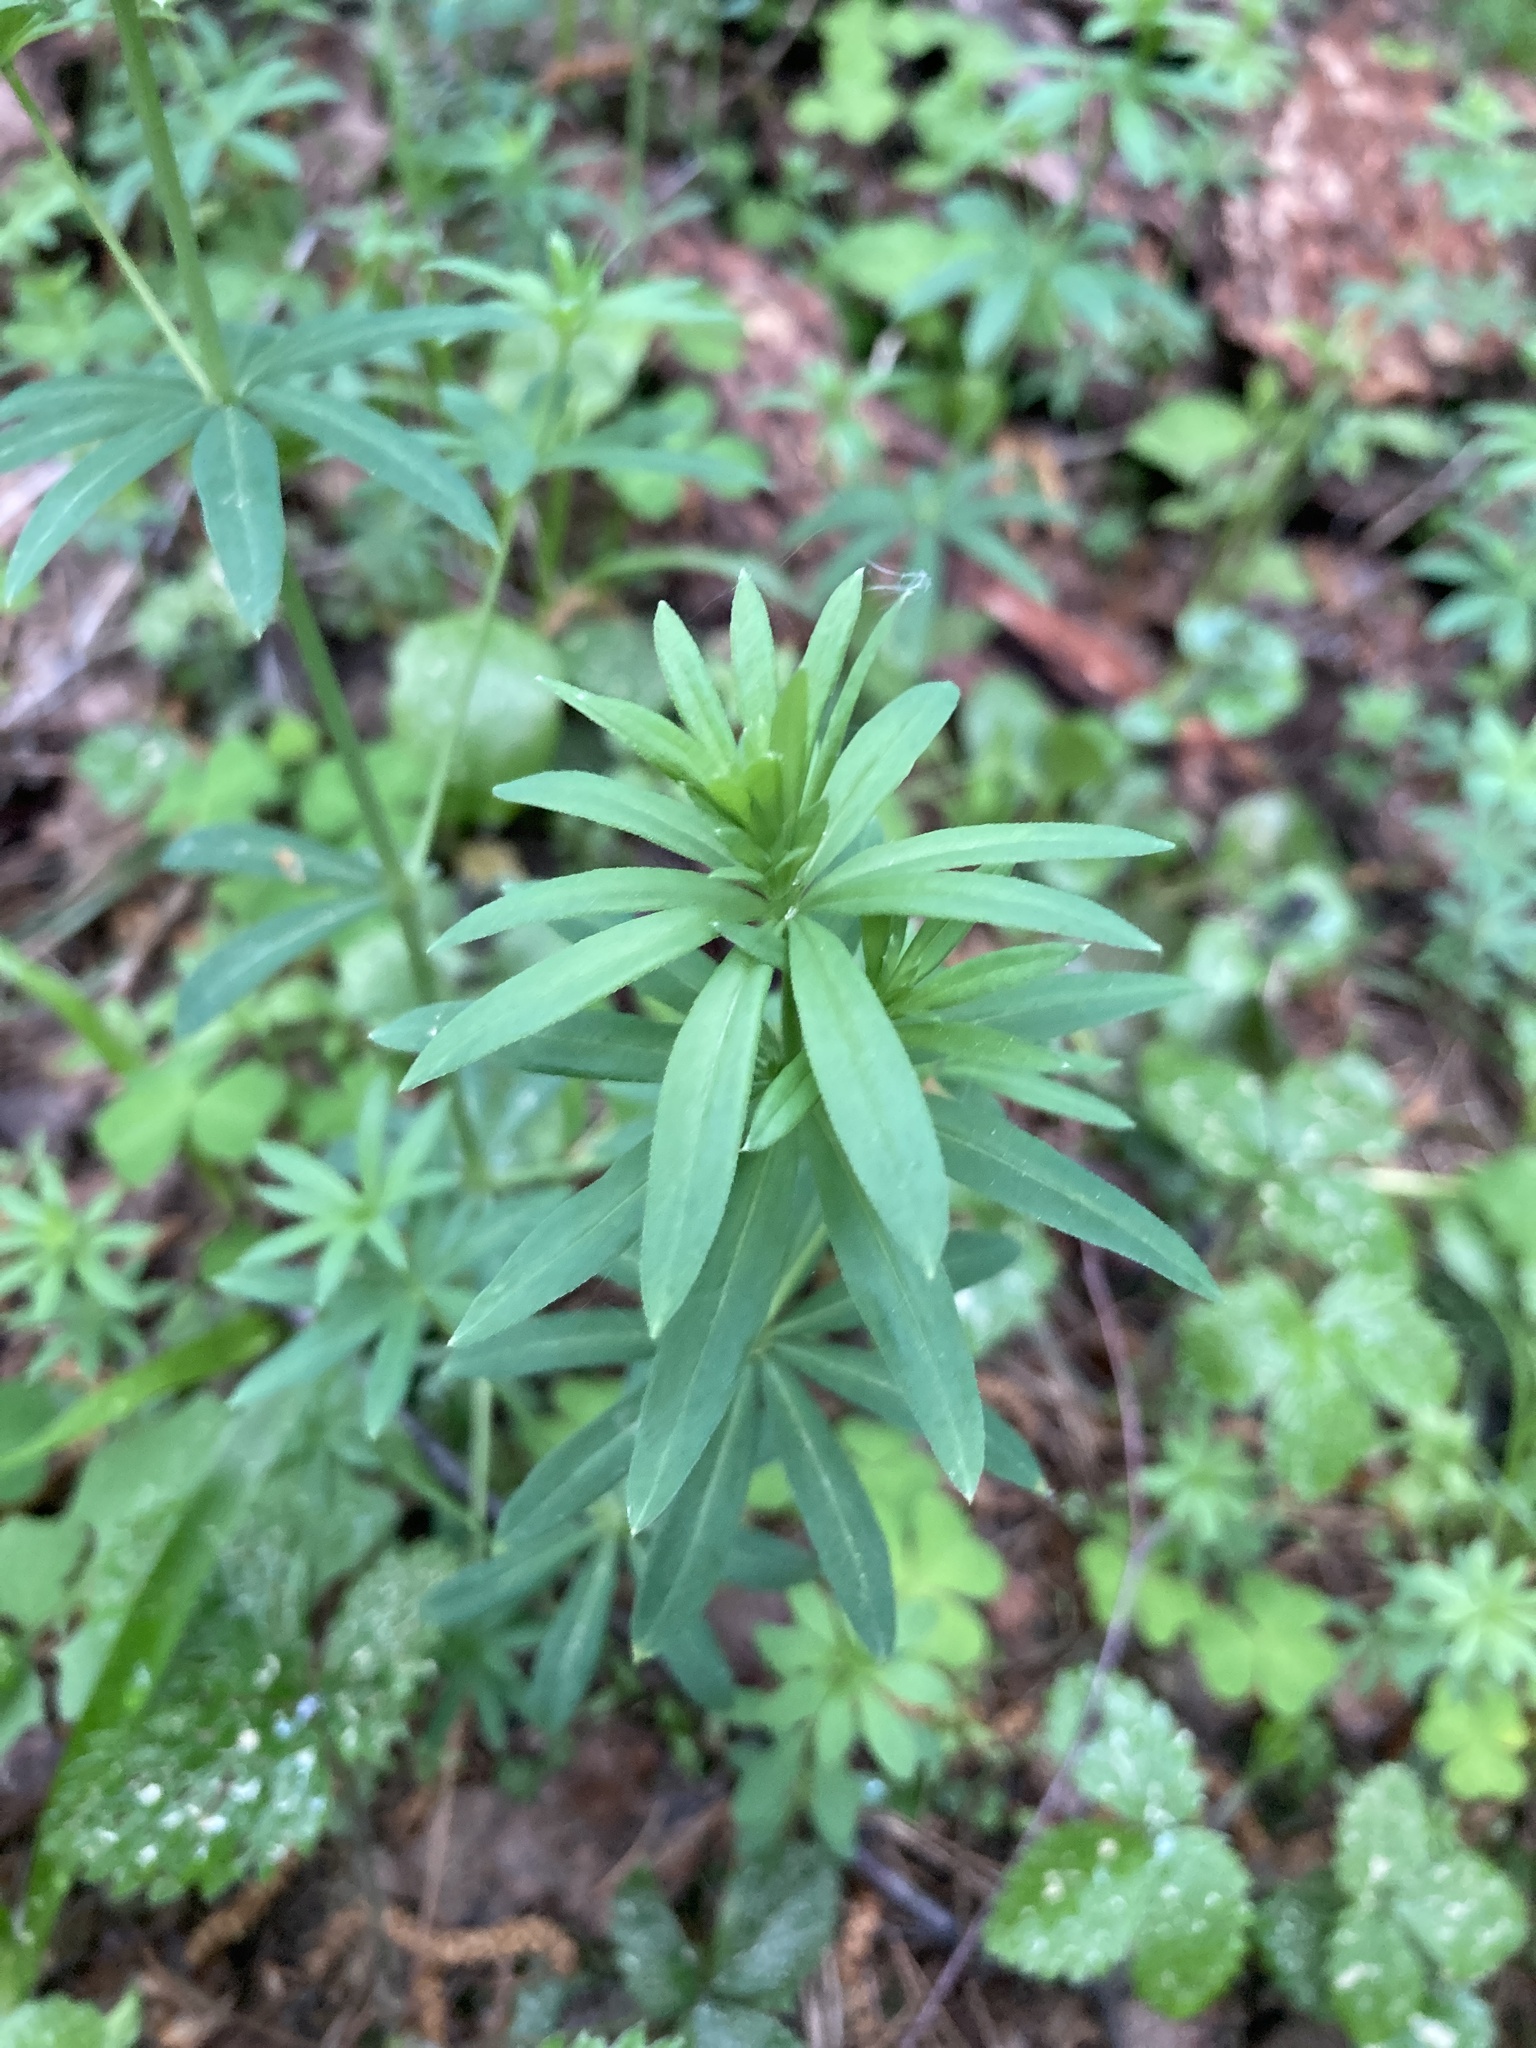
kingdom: Plantae
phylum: Tracheophyta
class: Magnoliopsida
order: Gentianales
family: Rubiaceae
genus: Galium
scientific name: Galium intermedium
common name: Bedstraw
